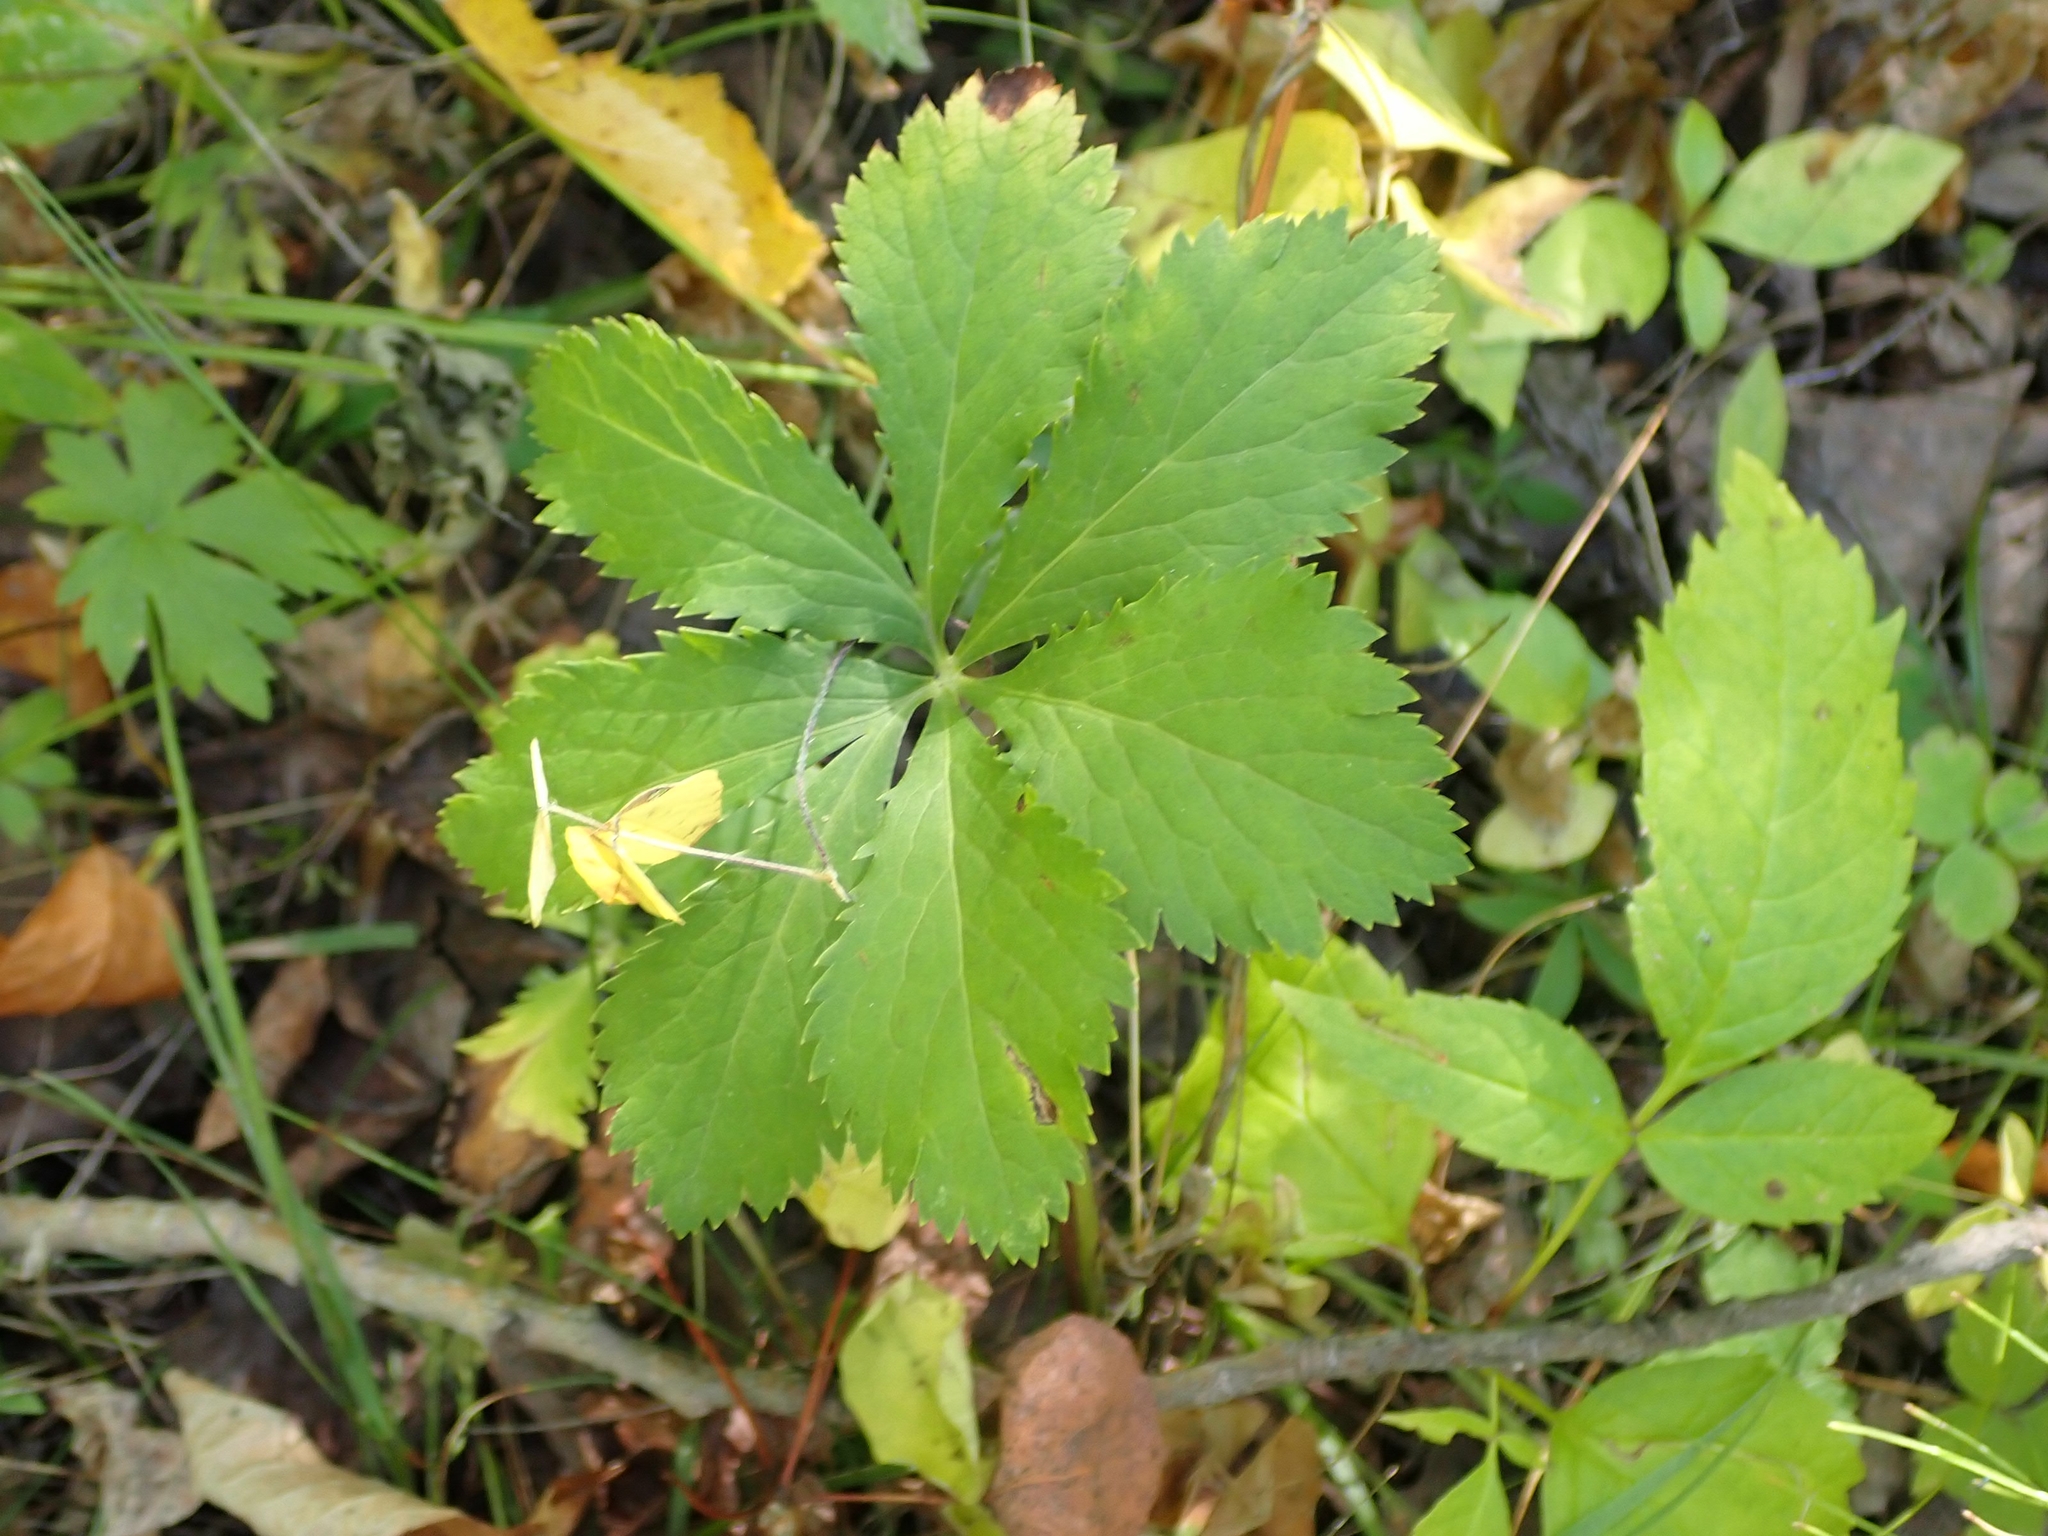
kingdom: Plantae
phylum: Tracheophyta
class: Magnoliopsida
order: Apiales
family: Apiaceae
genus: Sanicula
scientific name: Sanicula marilandica
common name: Black snakeroot
